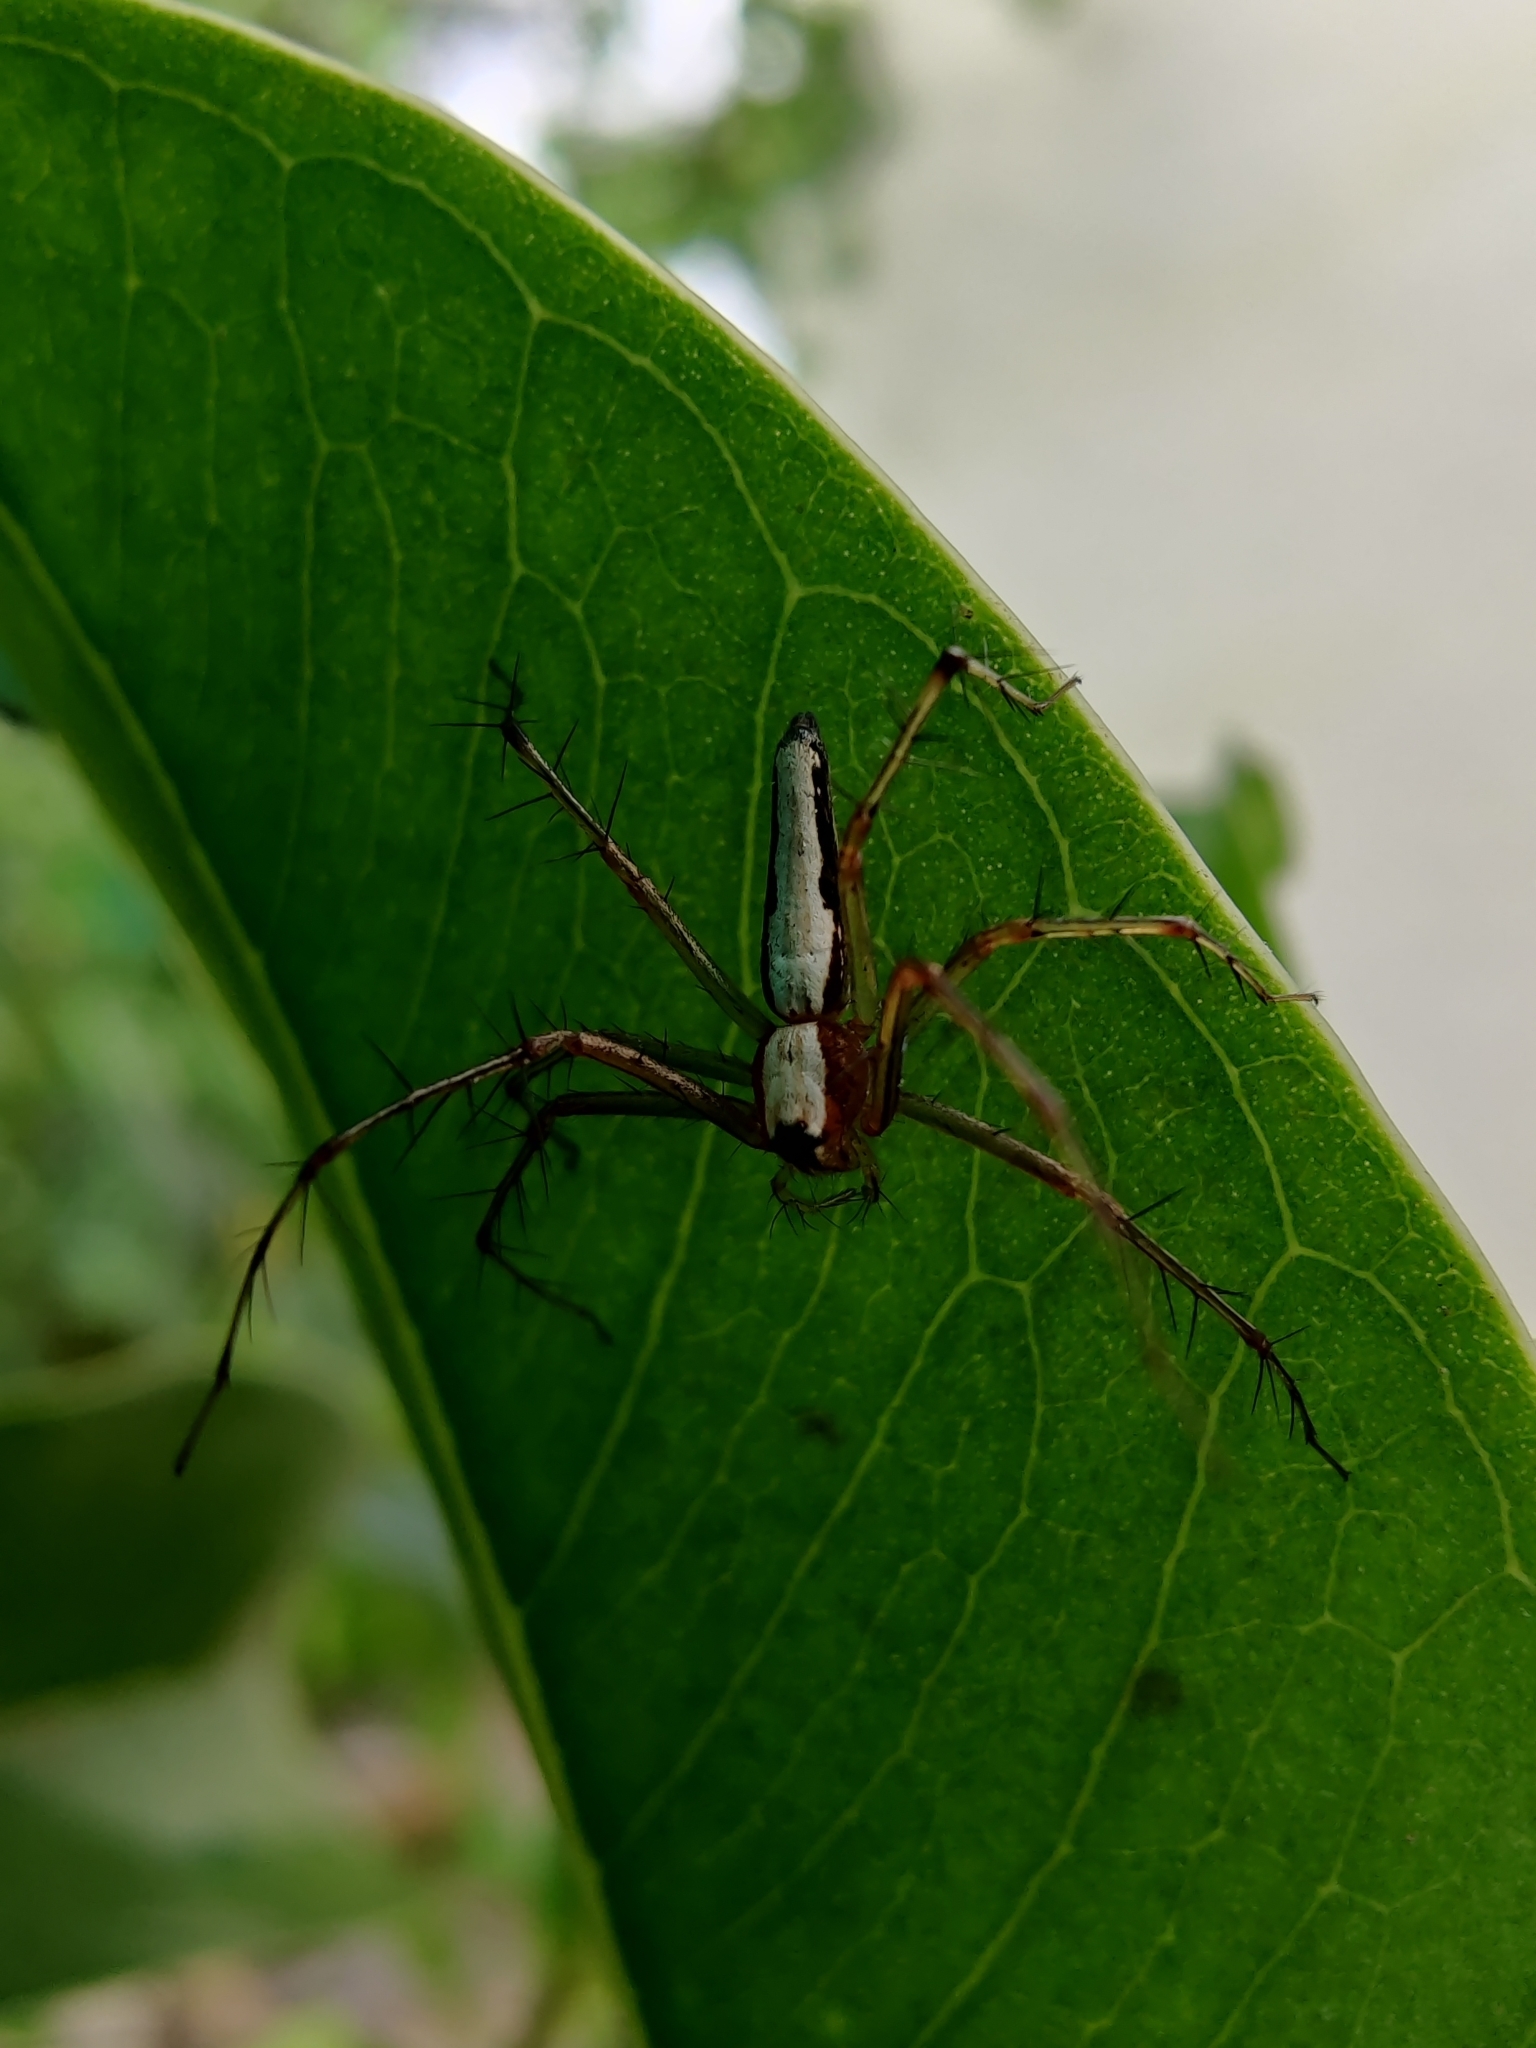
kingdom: Animalia
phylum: Arthropoda
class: Arachnida
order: Araneae
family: Oxyopidae
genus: Oxyopes
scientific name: Oxyopes shweta
